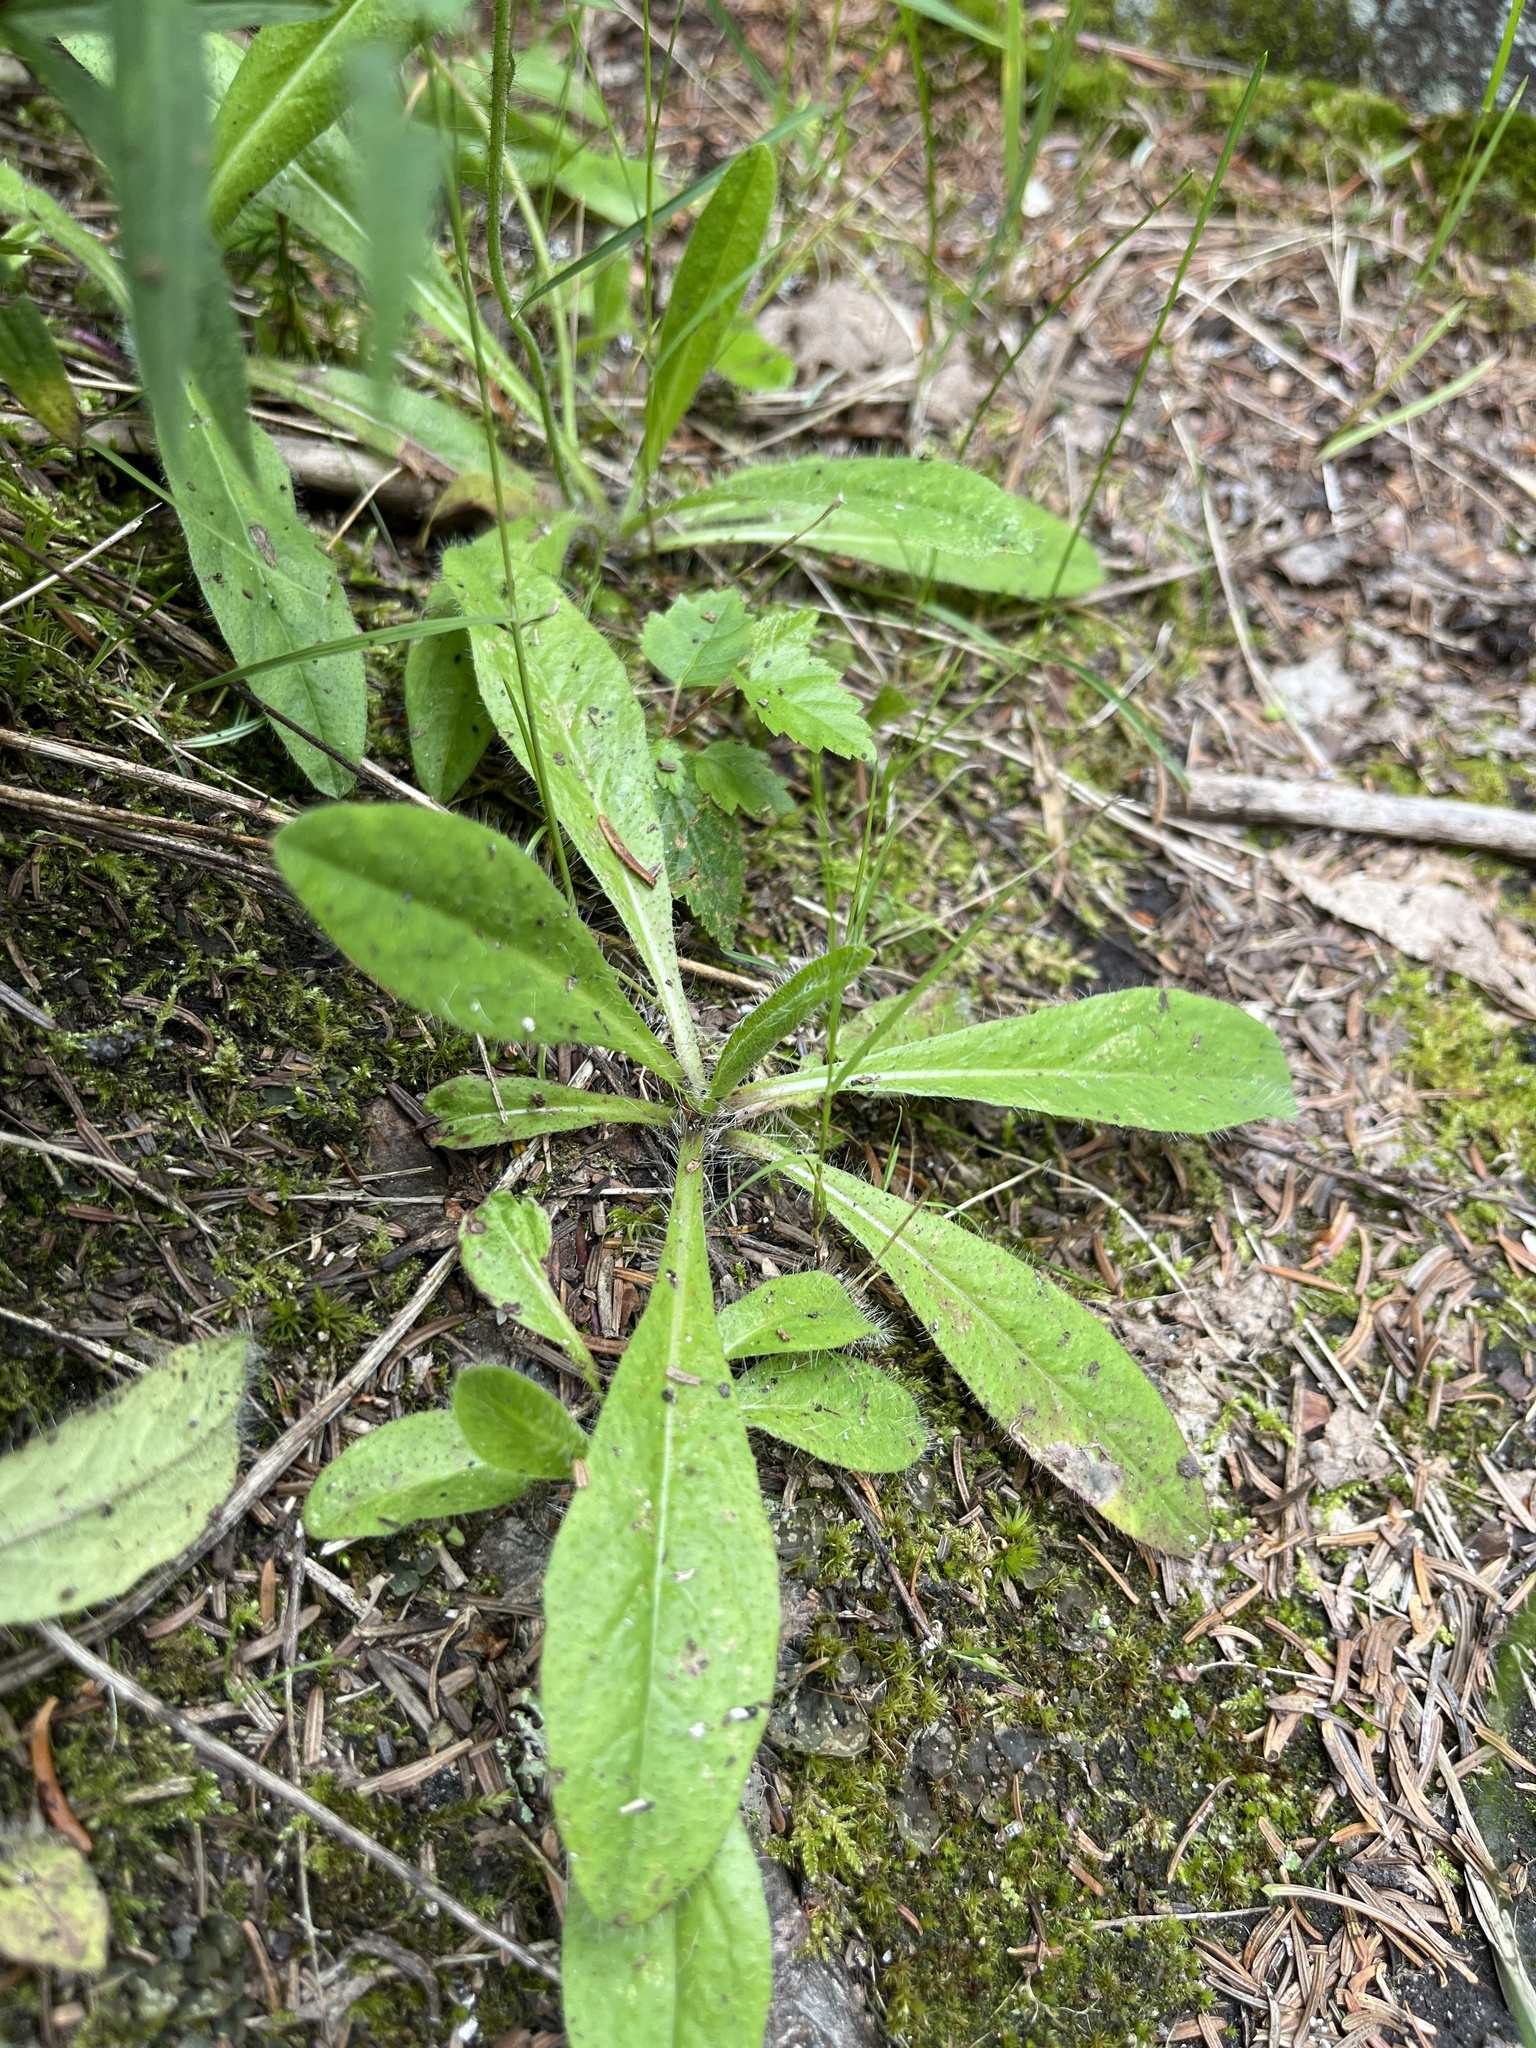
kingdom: Plantae
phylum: Tracheophyta
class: Magnoliopsida
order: Asterales
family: Asteraceae
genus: Pilosella
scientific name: Pilosella aurantiaca
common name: Fox-and-cubs
